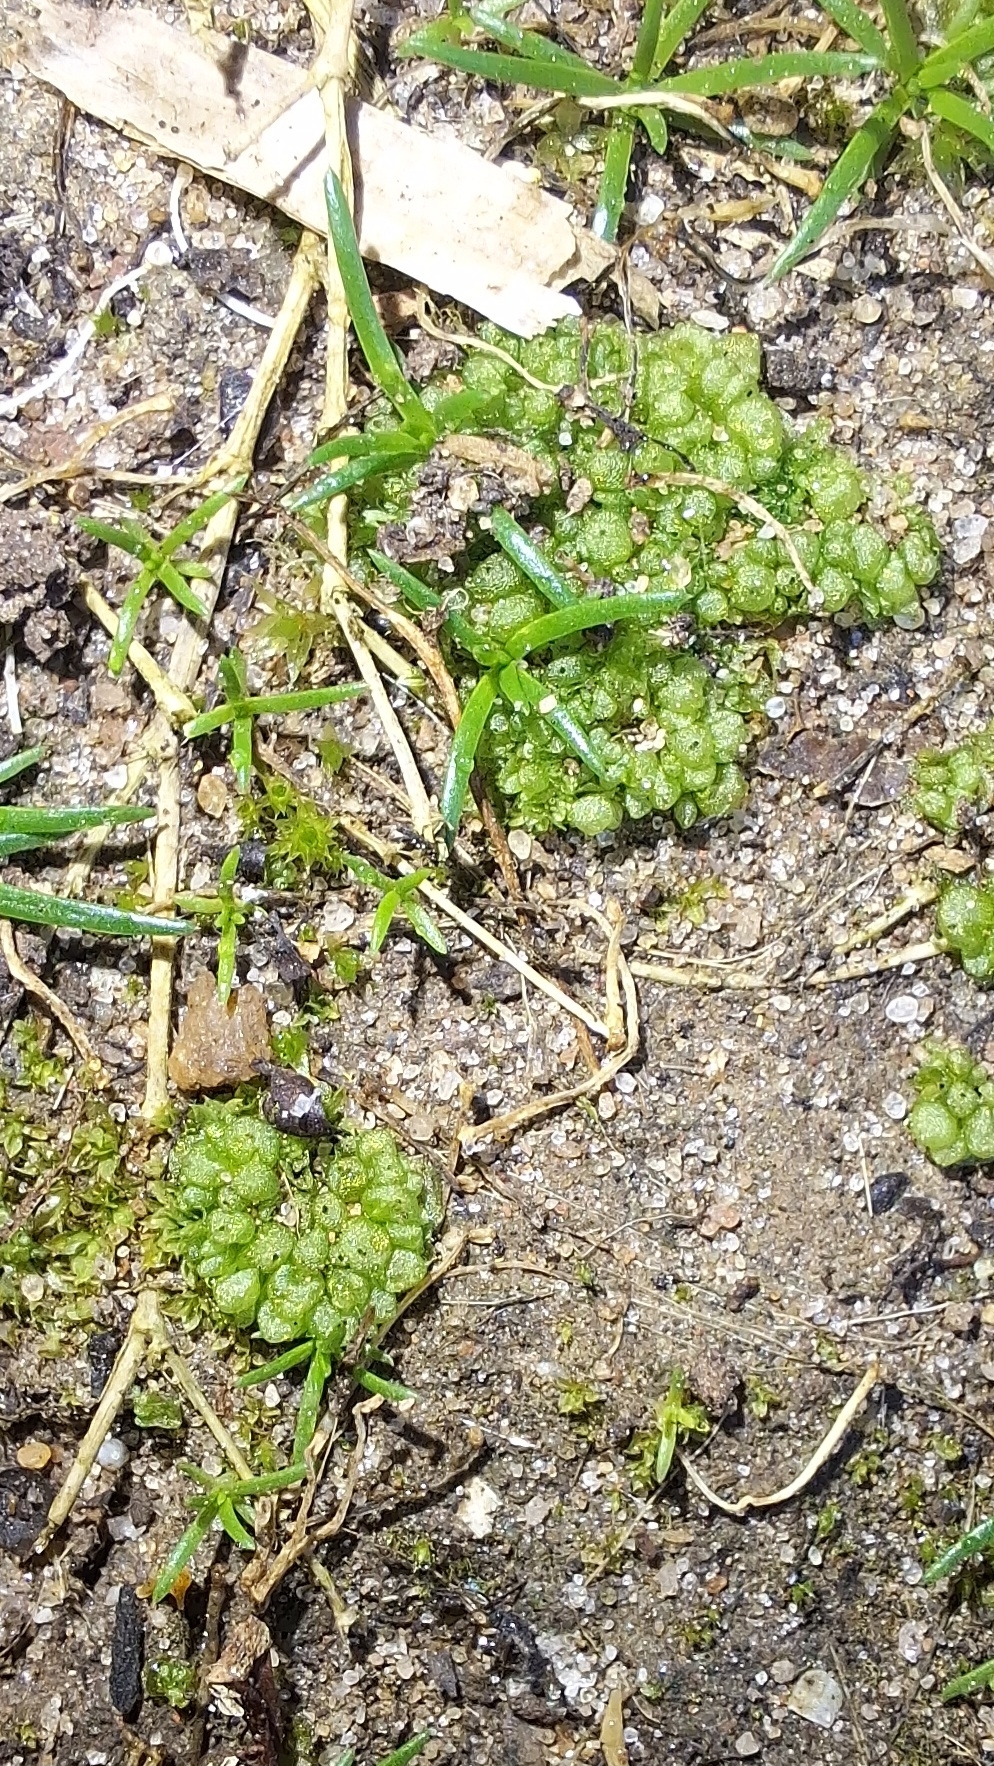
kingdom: Plantae
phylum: Marchantiophyta
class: Marchantiopsida
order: Sphaerocarpales
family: Sphaerocarpaceae
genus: Sphaerocarpos
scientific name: Sphaerocarpos texanus
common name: Texas balloonwort
